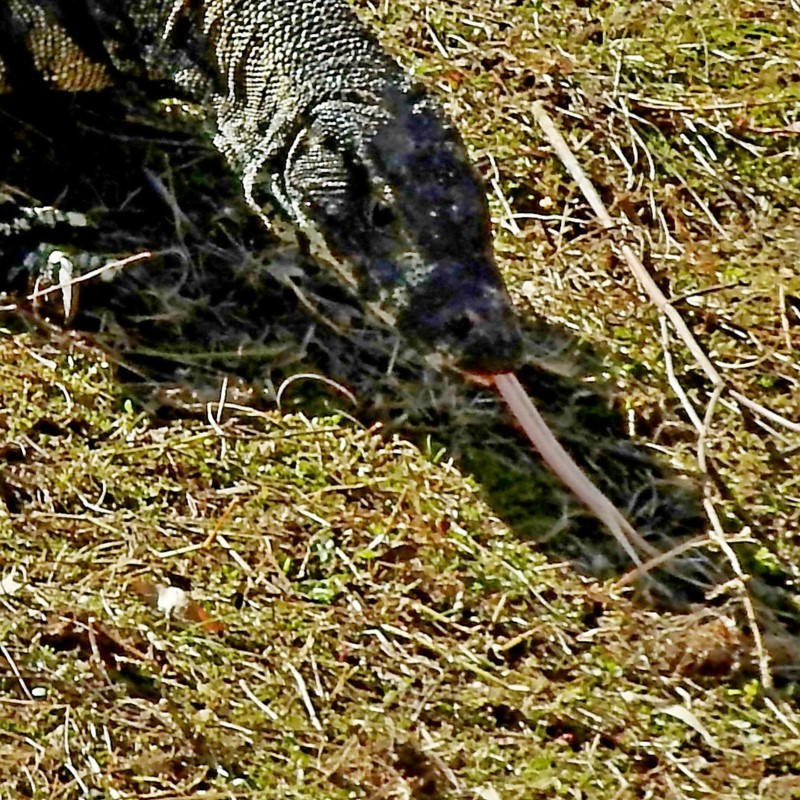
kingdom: Animalia
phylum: Chordata
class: Squamata
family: Varanidae
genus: Varanus
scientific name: Varanus varius
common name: Lace monitor
